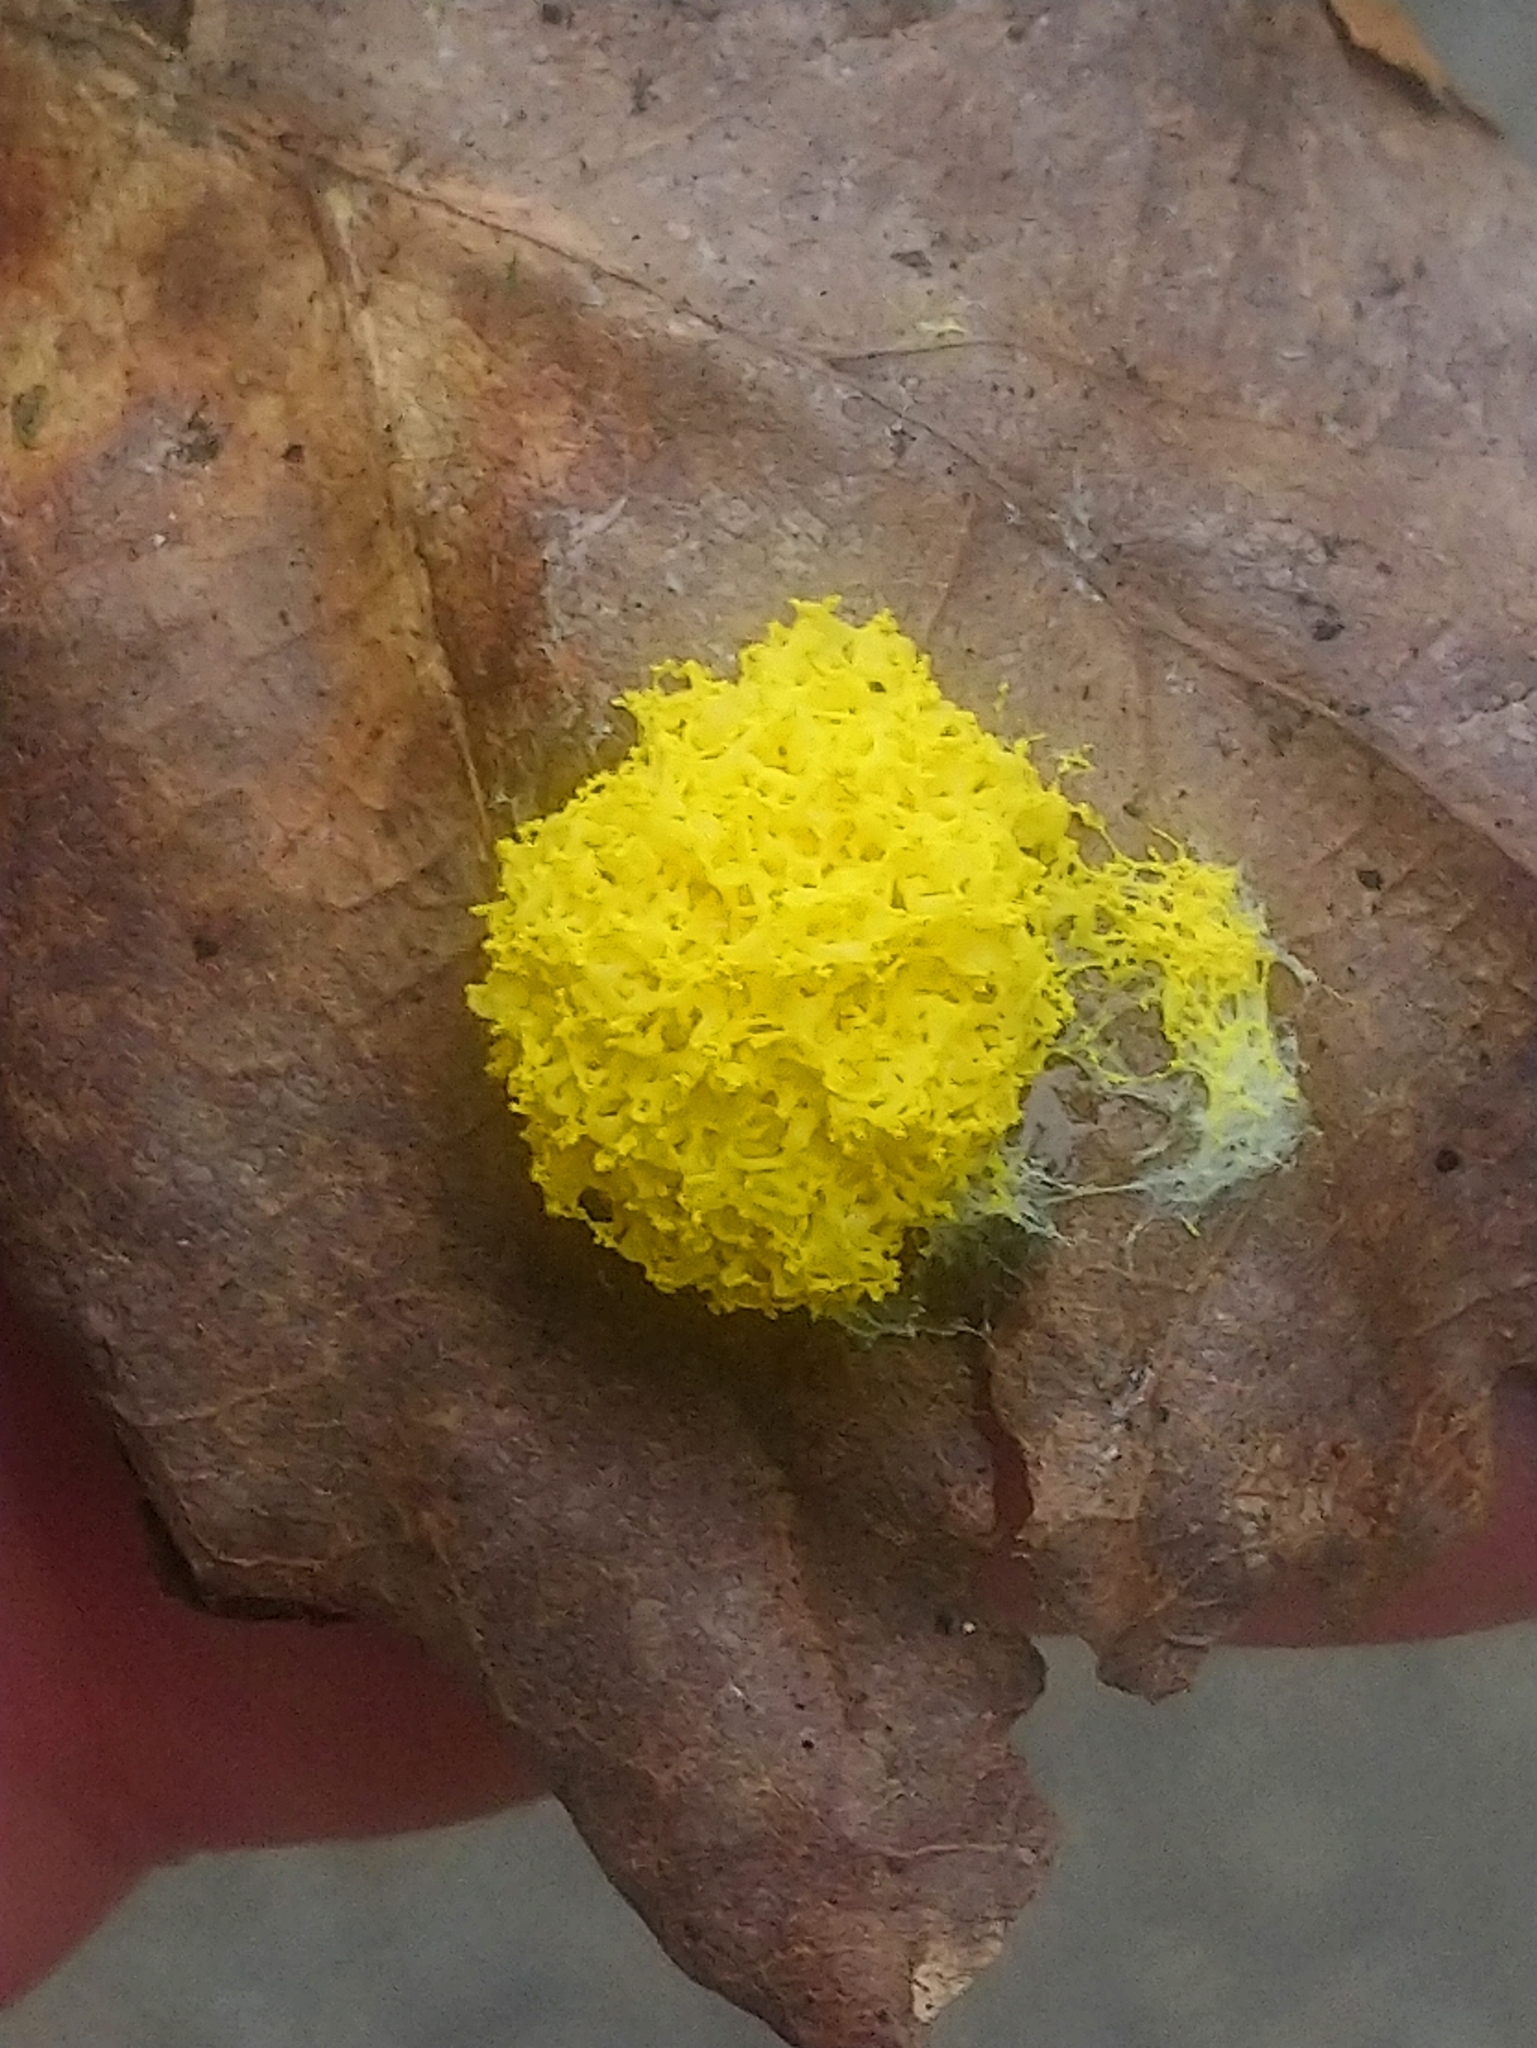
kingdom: Protozoa
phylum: Mycetozoa
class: Myxomycetes
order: Physarales
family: Physaraceae
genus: Fuligo
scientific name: Fuligo septica
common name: Dog vomit slime mold
